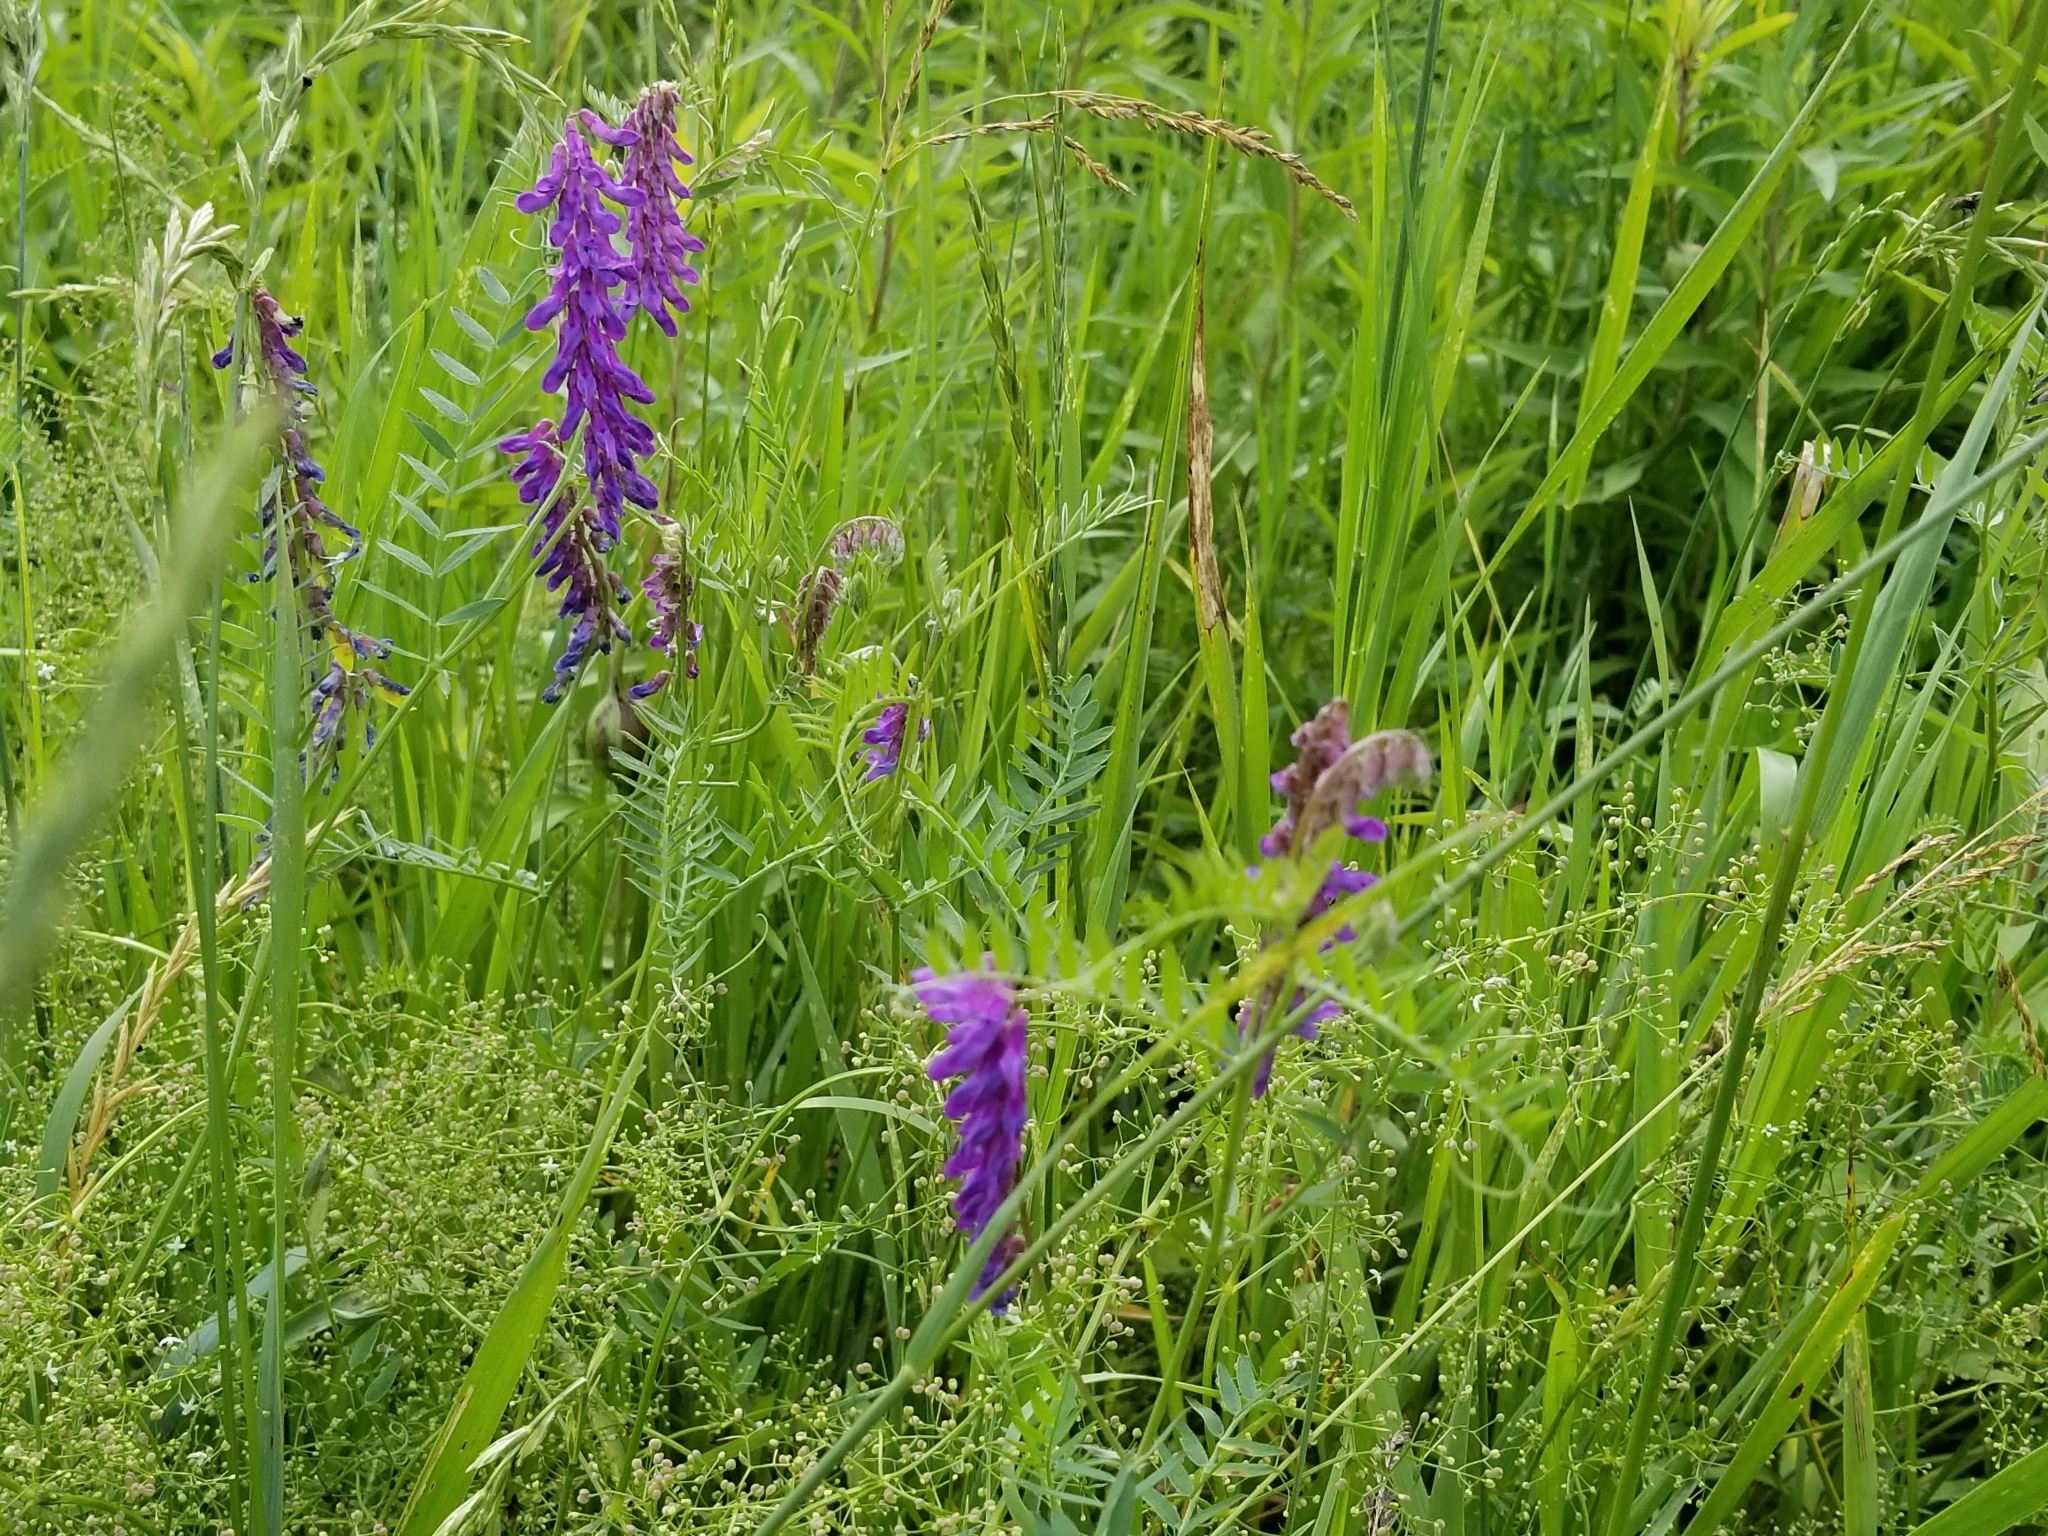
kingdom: Plantae
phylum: Tracheophyta
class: Magnoliopsida
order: Fabales
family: Fabaceae
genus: Vicia
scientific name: Vicia cracca
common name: Bird vetch
